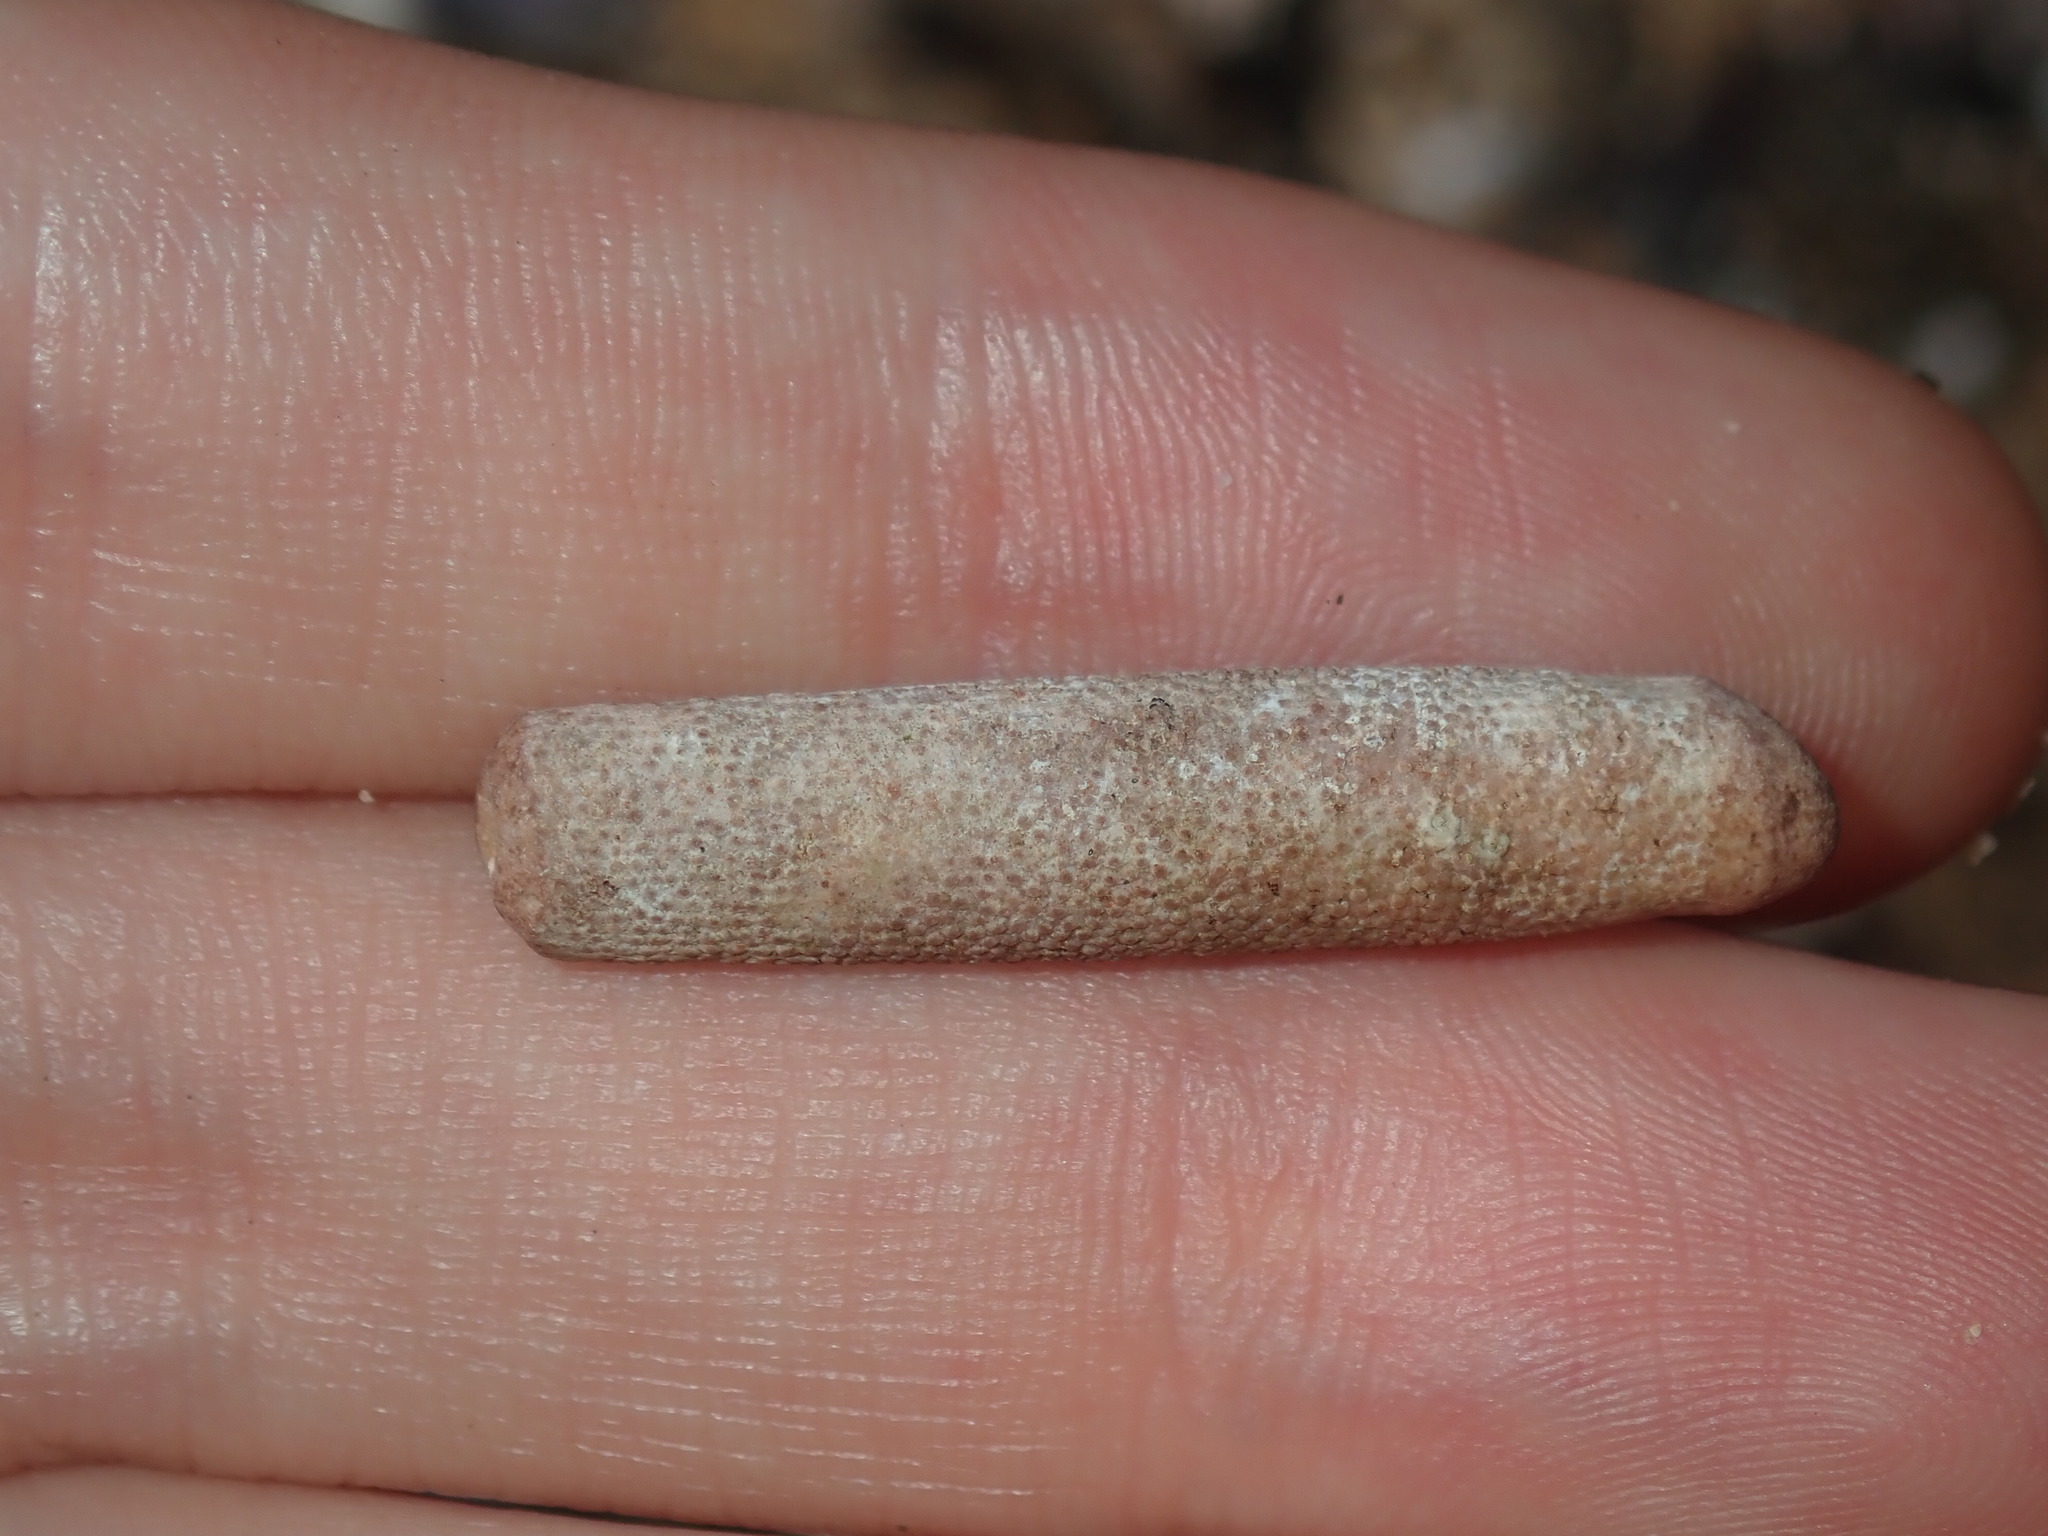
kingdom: Animalia
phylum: Echinodermata
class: Echinoidea
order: Cidaroida
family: Cidaridae
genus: Phyllacanthus
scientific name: Phyllacanthus parvispinus
